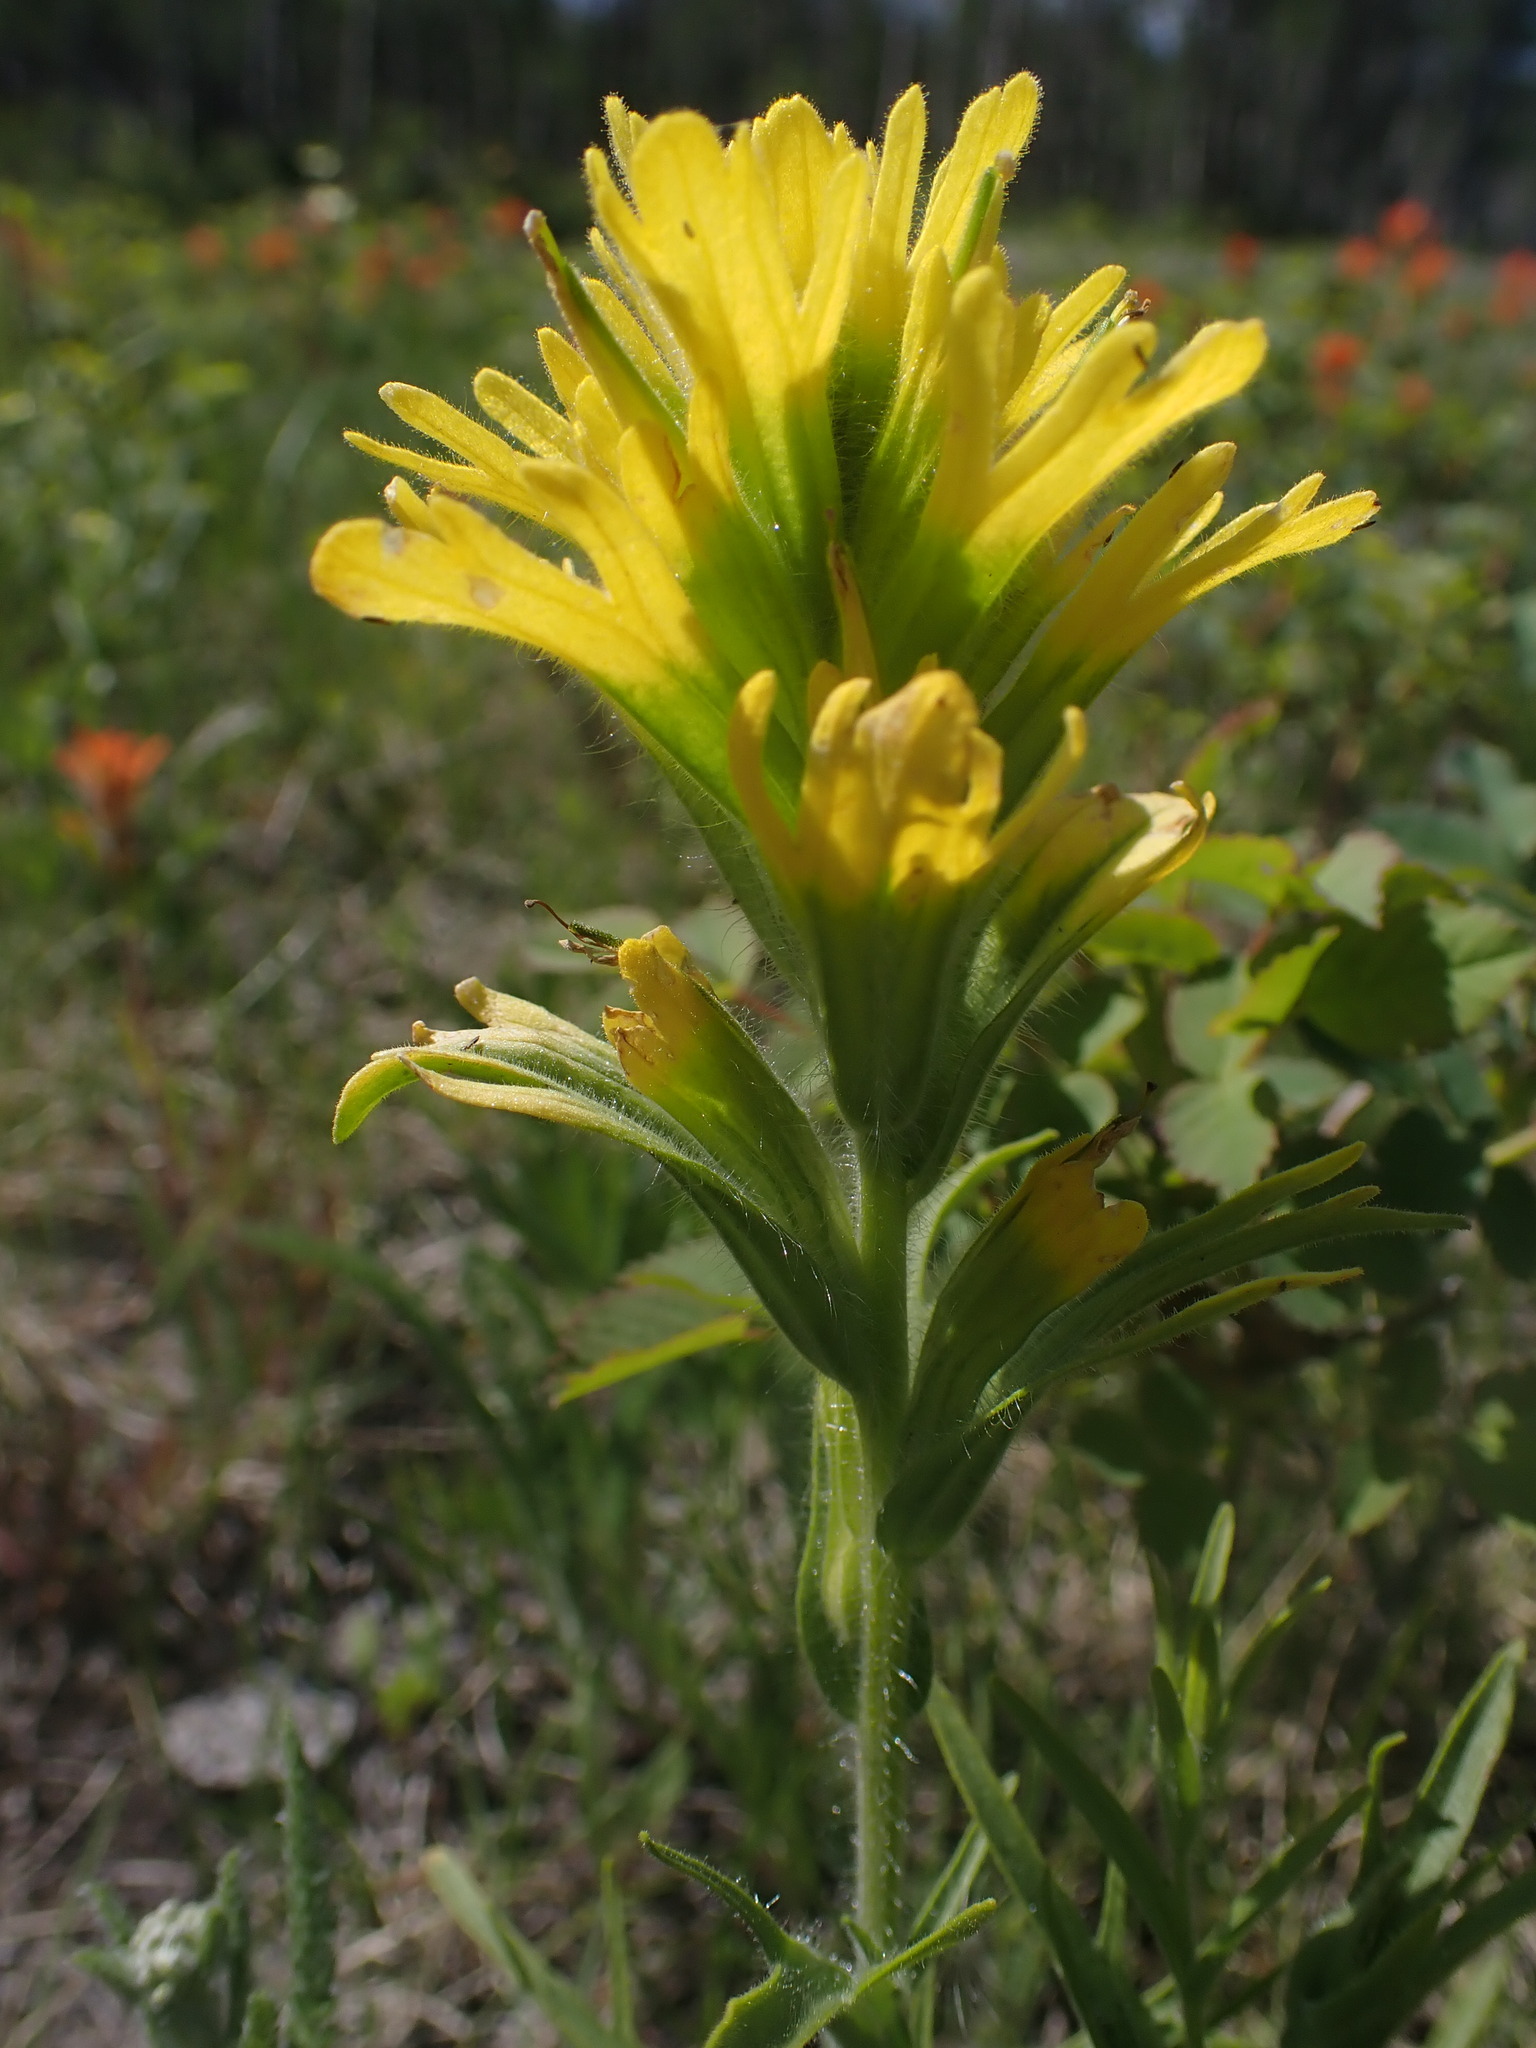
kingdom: Plantae
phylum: Tracheophyta
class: Magnoliopsida
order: Lamiales
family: Orobanchaceae
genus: Castilleja
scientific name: Castilleja hispida
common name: Bristly paintbrush
